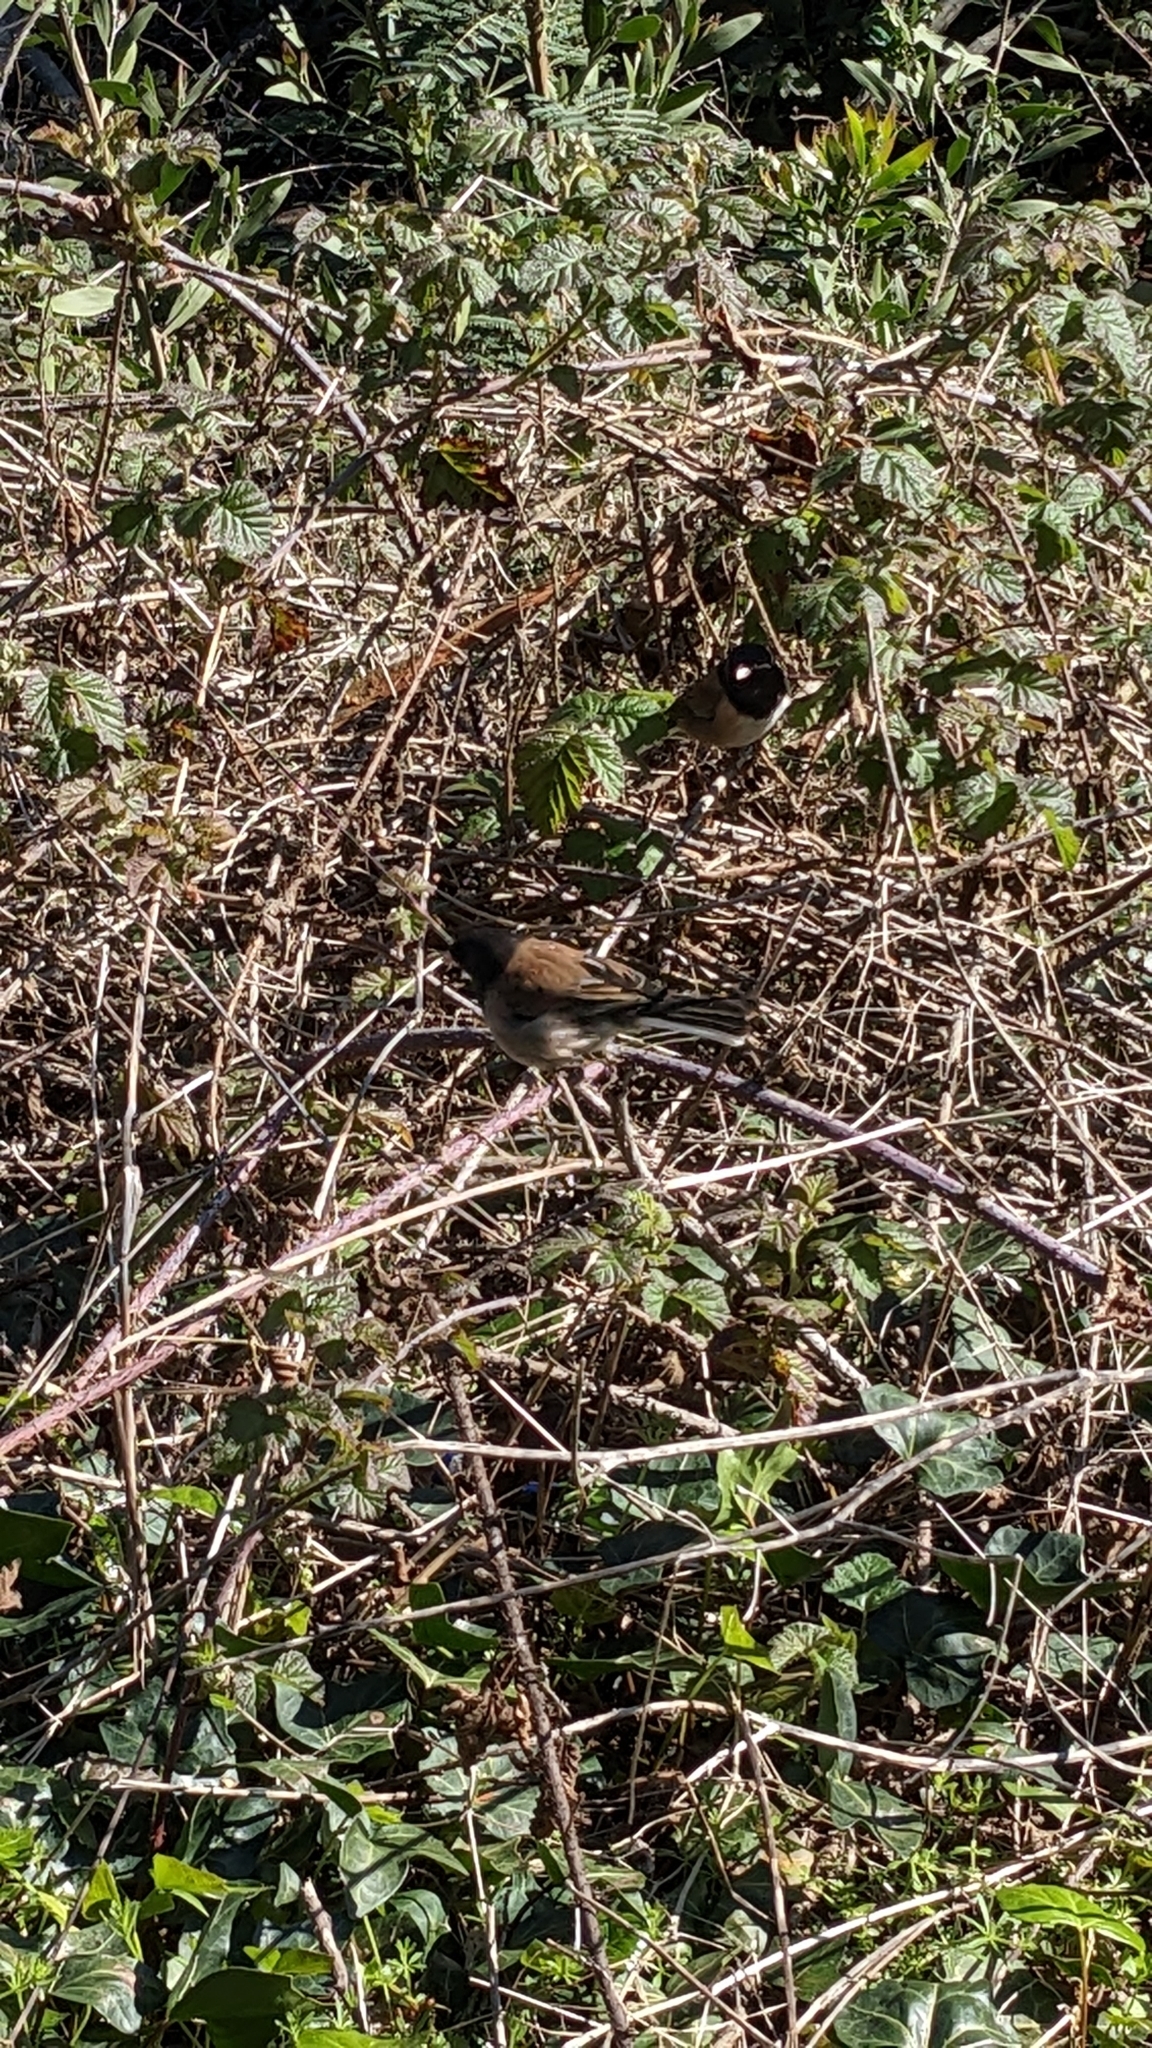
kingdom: Animalia
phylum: Chordata
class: Aves
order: Passeriformes
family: Passerellidae
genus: Junco
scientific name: Junco hyemalis
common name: Dark-eyed junco
